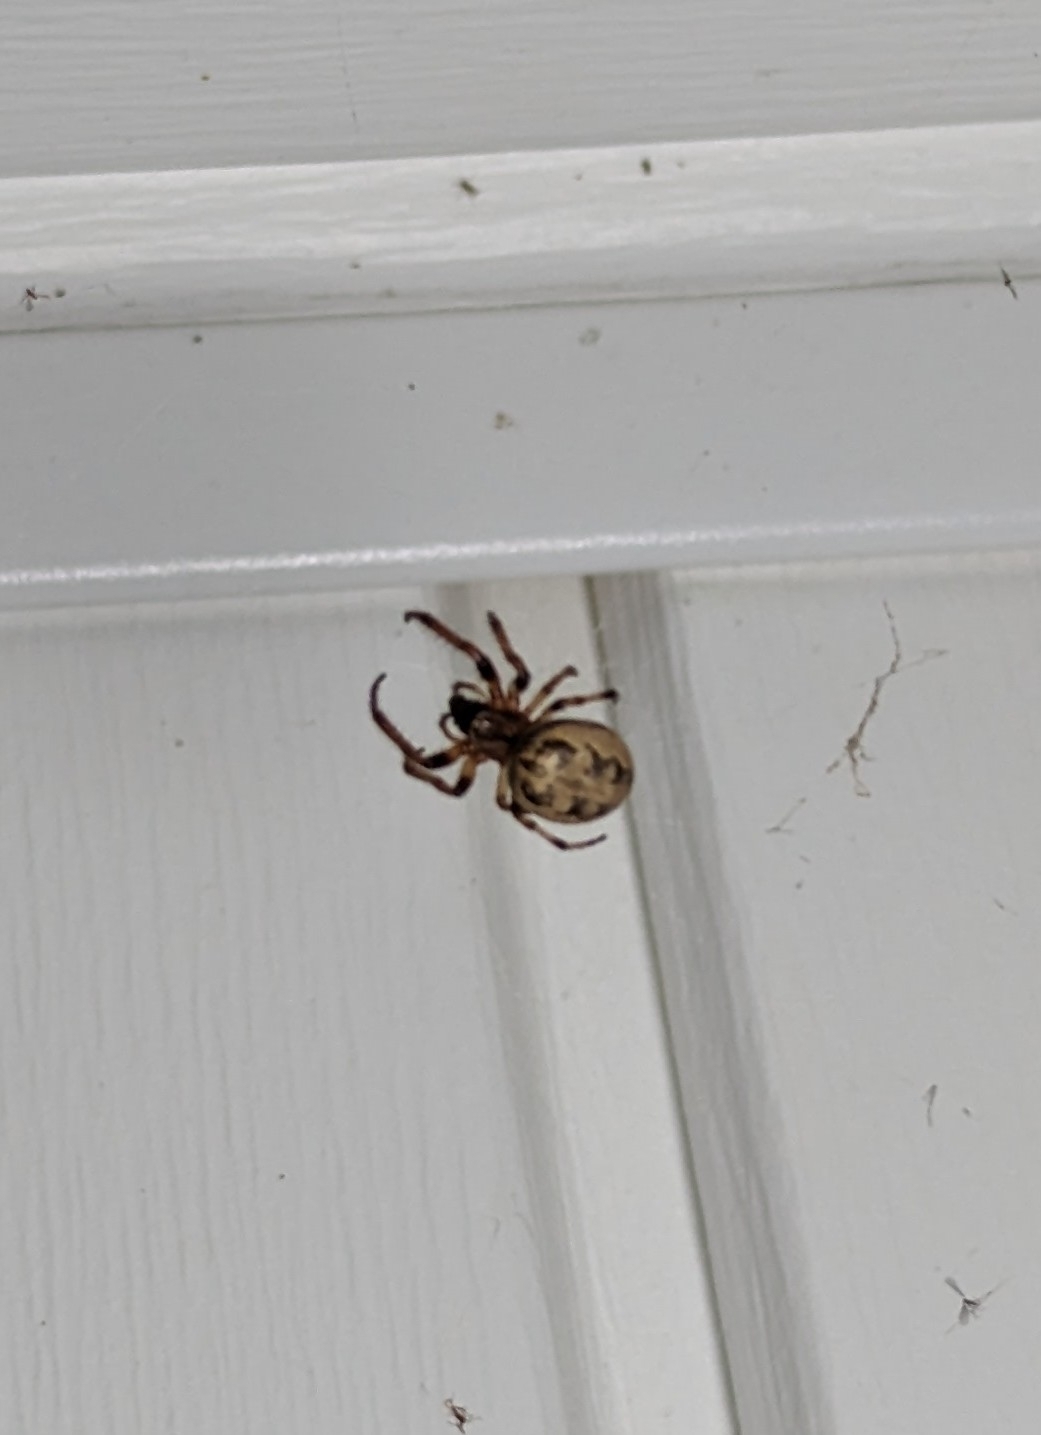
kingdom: Animalia
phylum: Arthropoda
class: Arachnida
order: Araneae
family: Araneidae
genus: Larinioides
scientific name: Larinioides cornutus
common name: Furrow orbweaver
